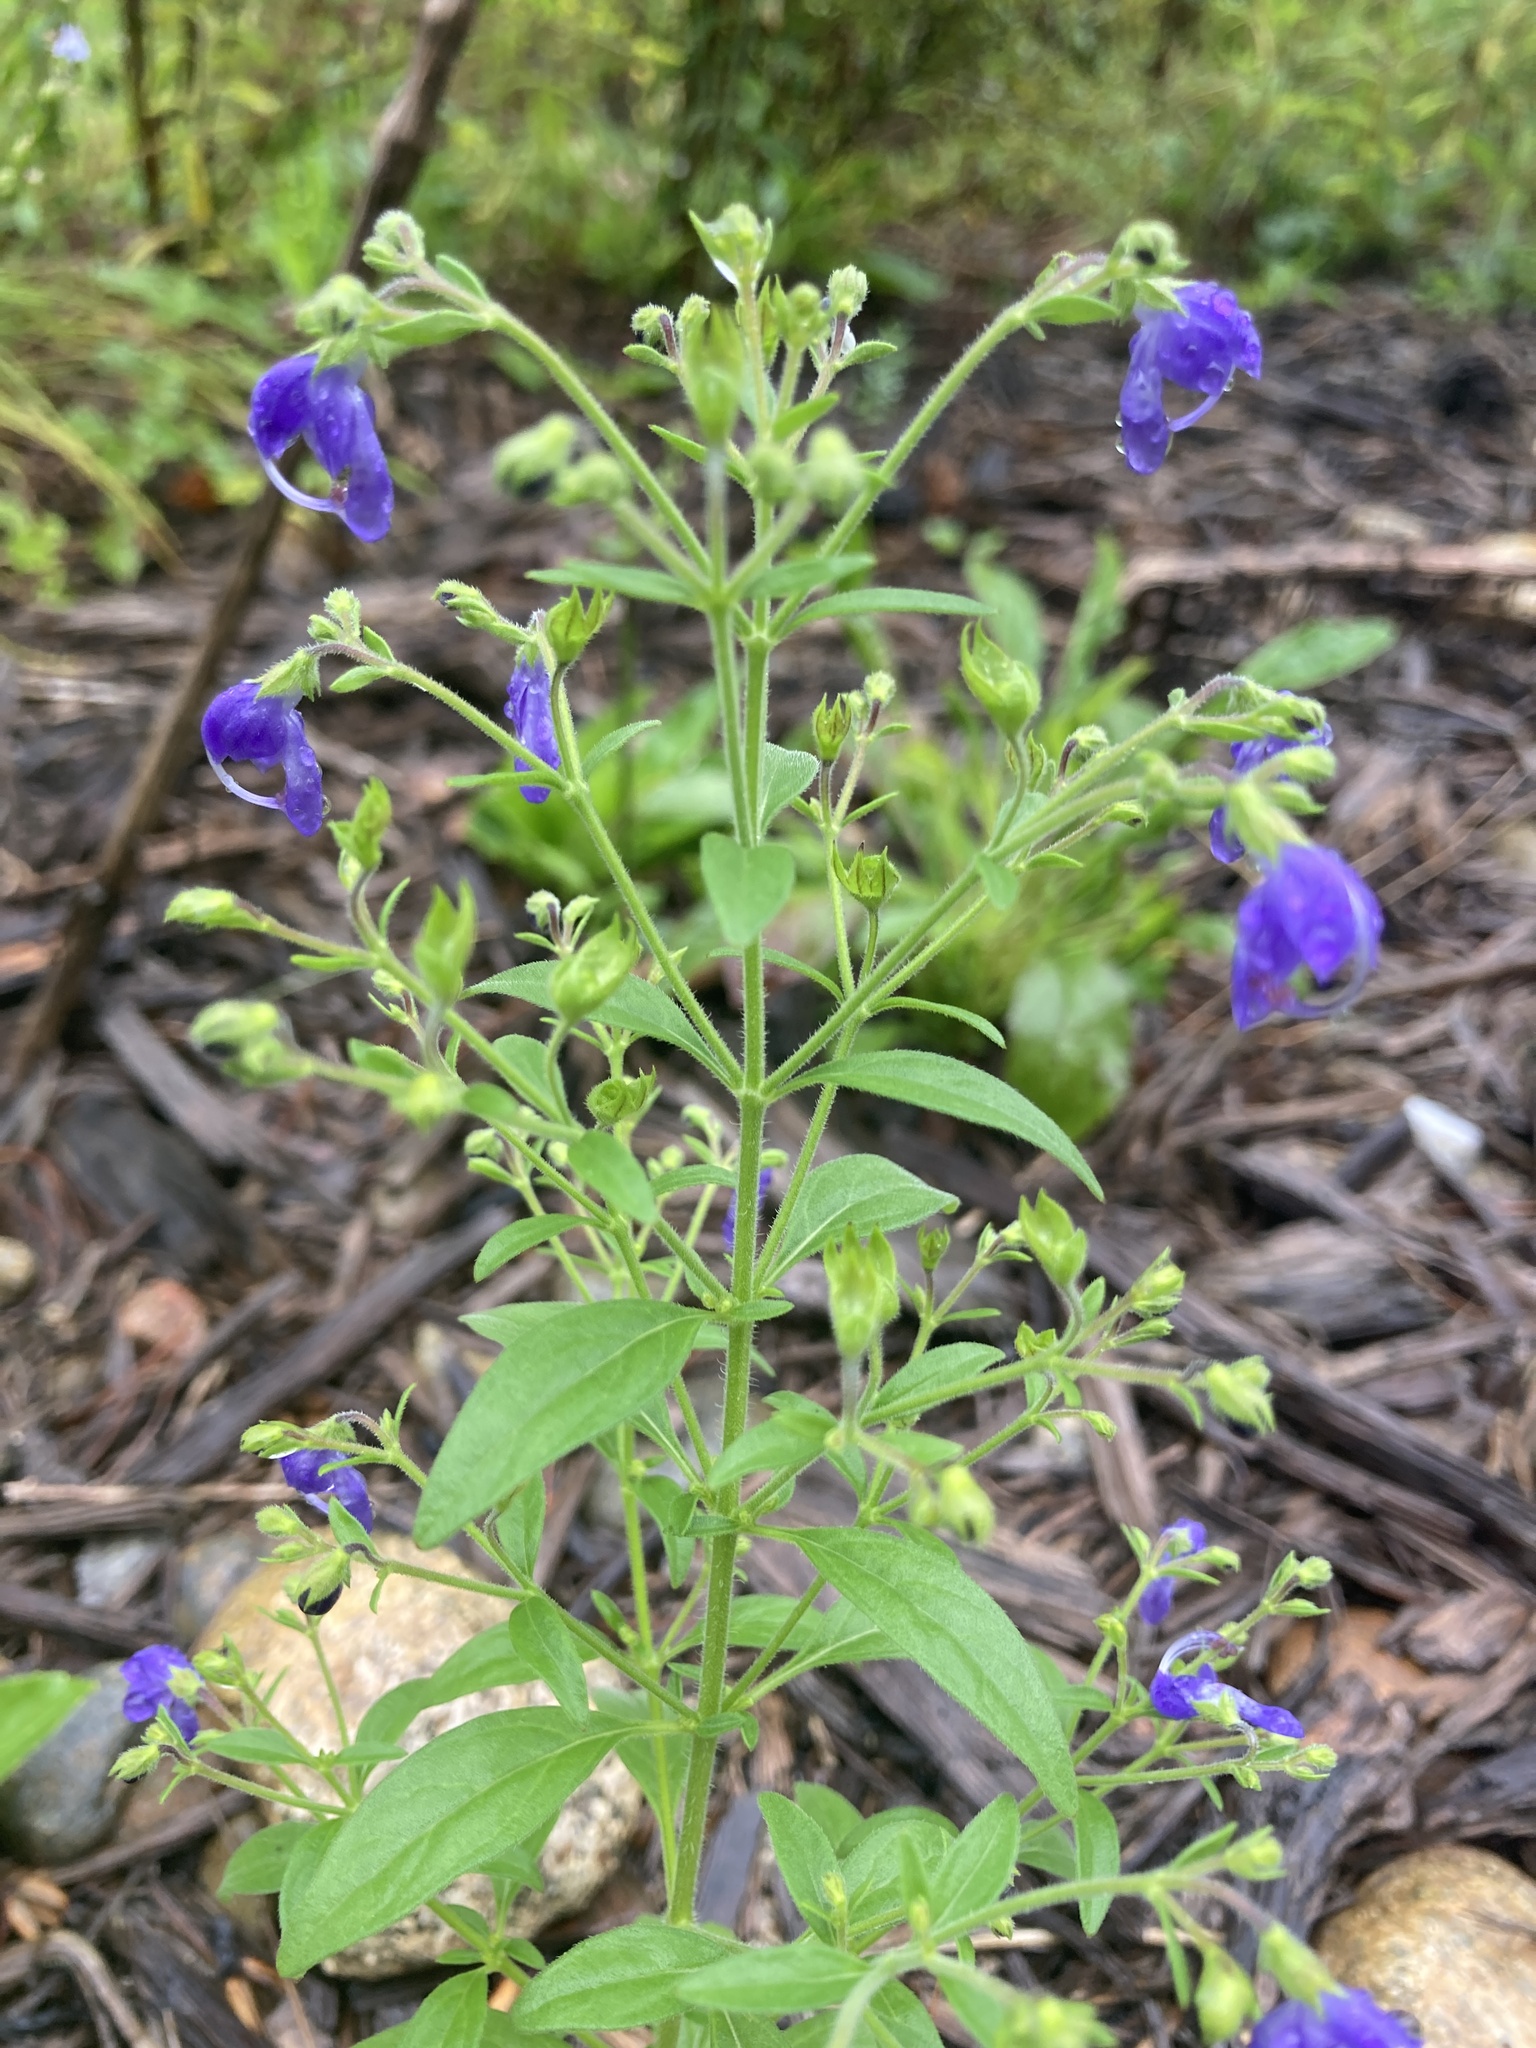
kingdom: Plantae
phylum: Tracheophyta
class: Magnoliopsida
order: Lamiales
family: Lamiaceae
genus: Trichostema
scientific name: Trichostema dichotomum
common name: Bastard pennyroyal
